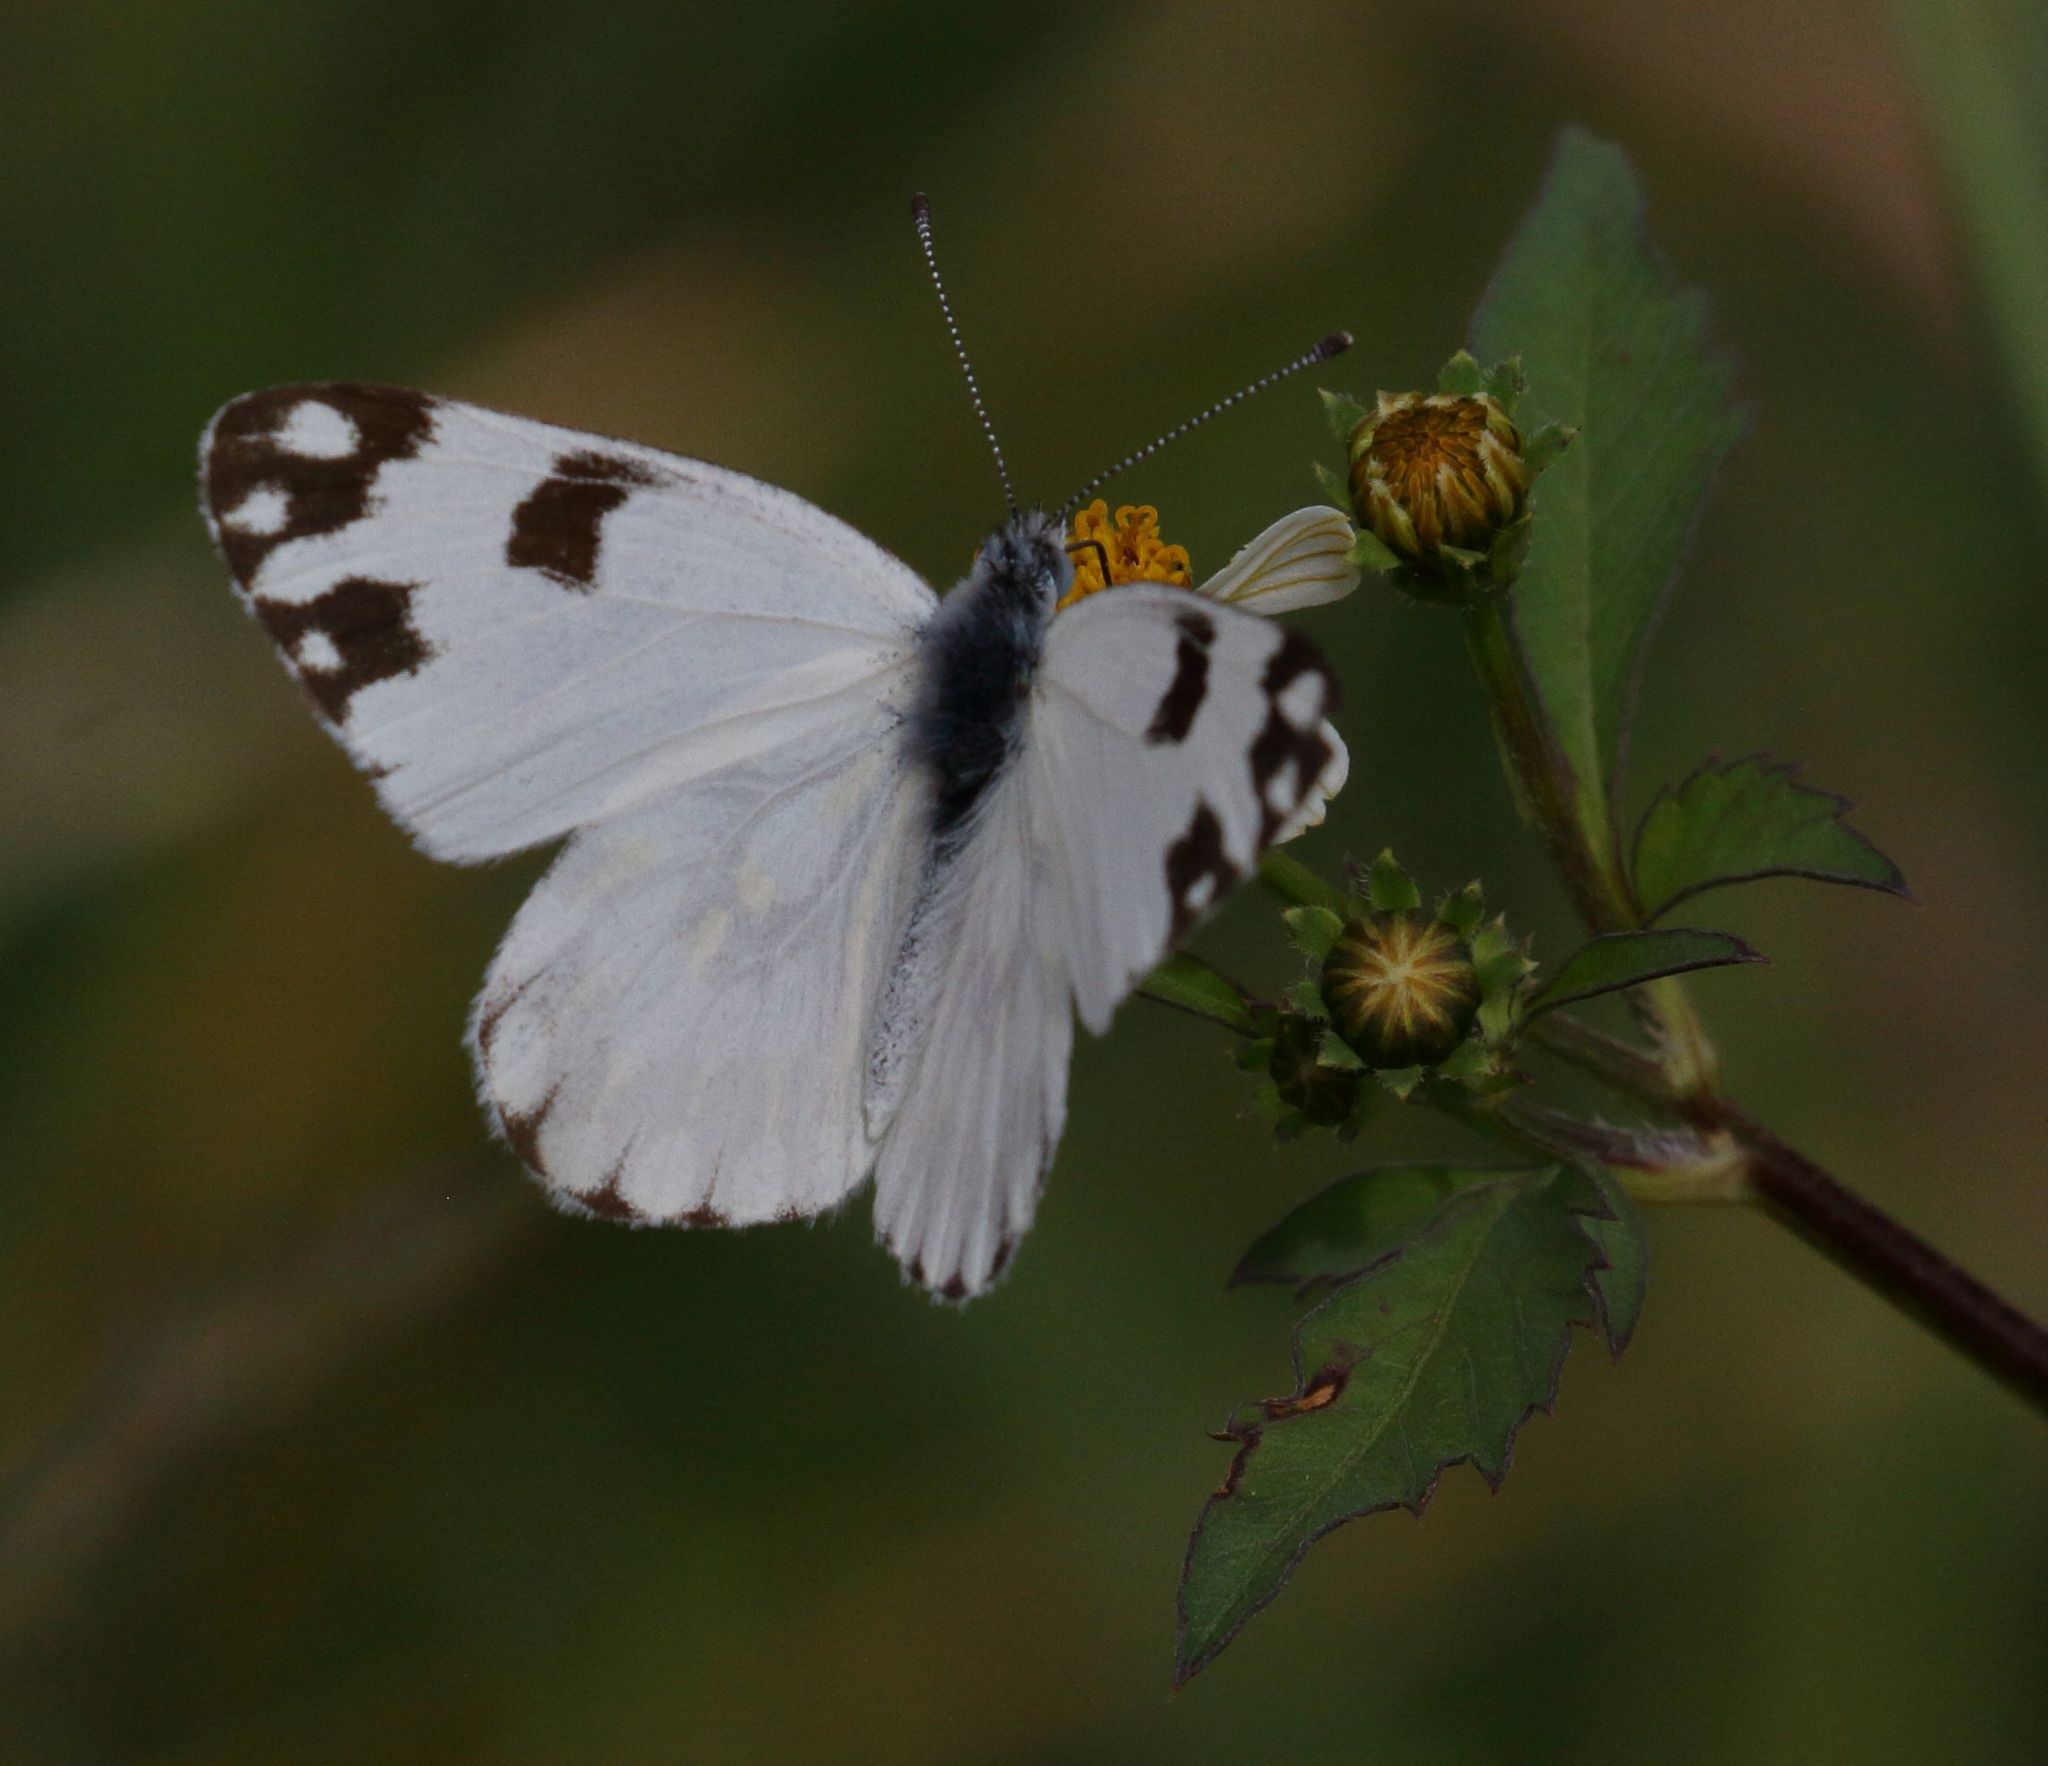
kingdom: Animalia
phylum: Arthropoda
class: Insecta
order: Lepidoptera
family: Pieridae
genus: Pontia
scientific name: Pontia helice
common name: Meadow white
